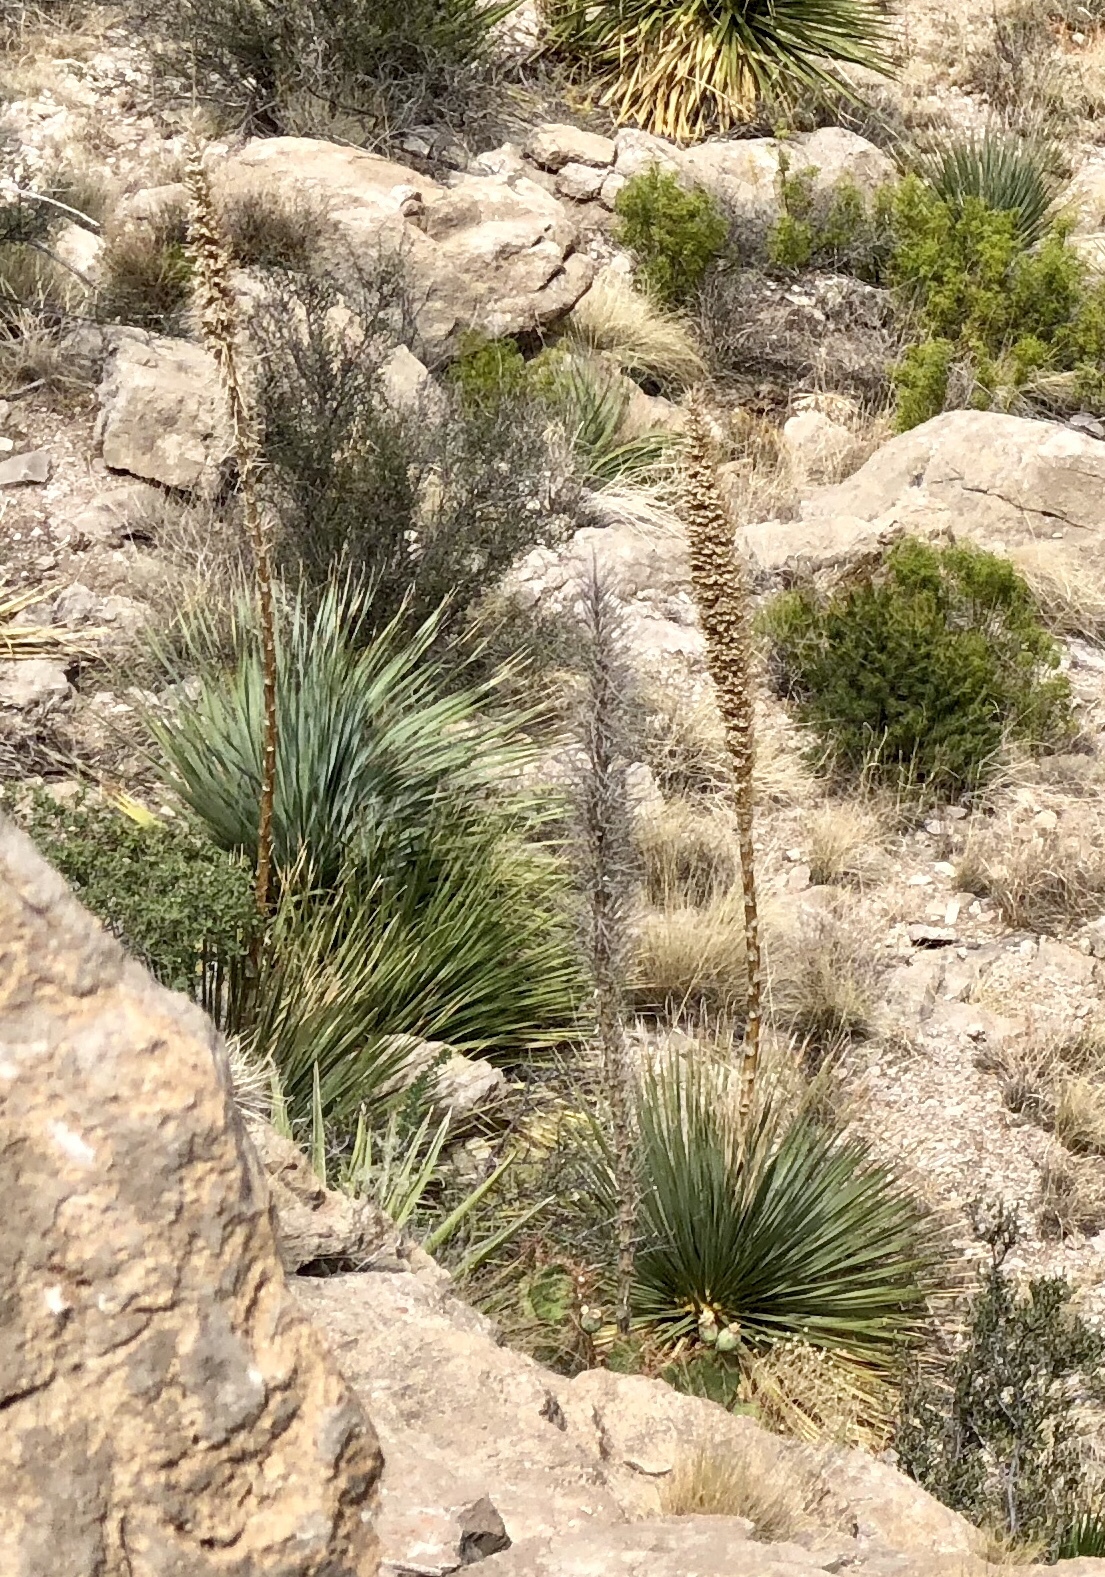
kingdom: Plantae
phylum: Tracheophyta
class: Liliopsida
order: Asparagales
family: Asparagaceae
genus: Dasylirion
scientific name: Dasylirion wheeleri
